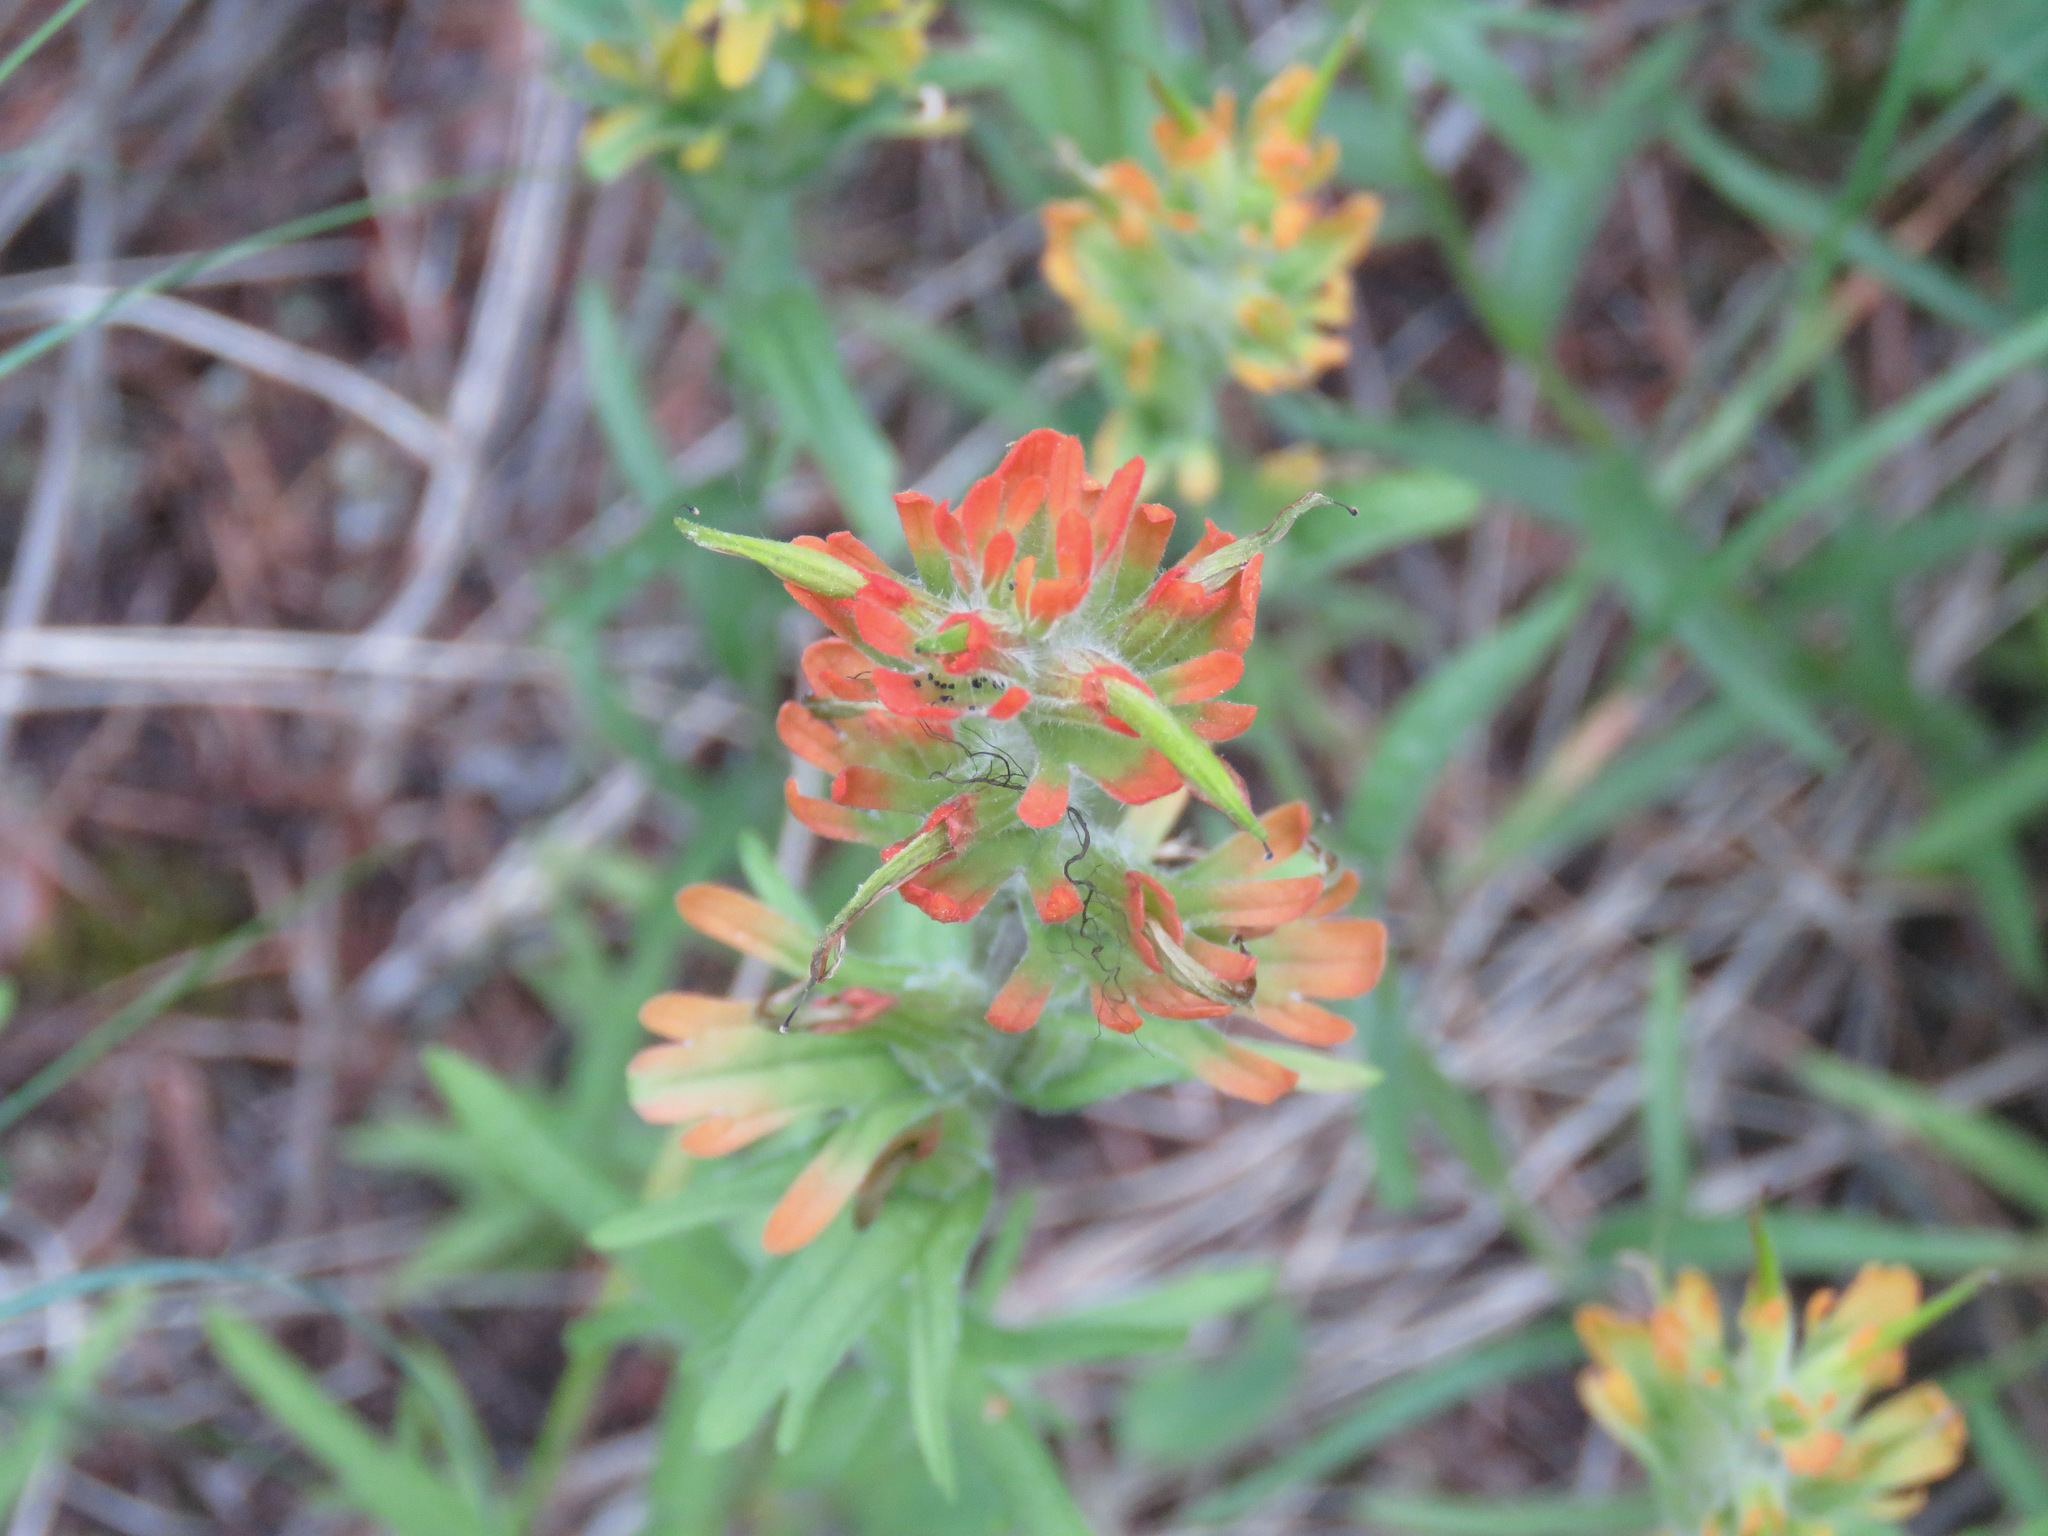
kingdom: Plantae
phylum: Tracheophyta
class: Magnoliopsida
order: Lamiales
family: Orobanchaceae
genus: Castilleja
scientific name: Castilleja hispida
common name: Bristly paintbrush
